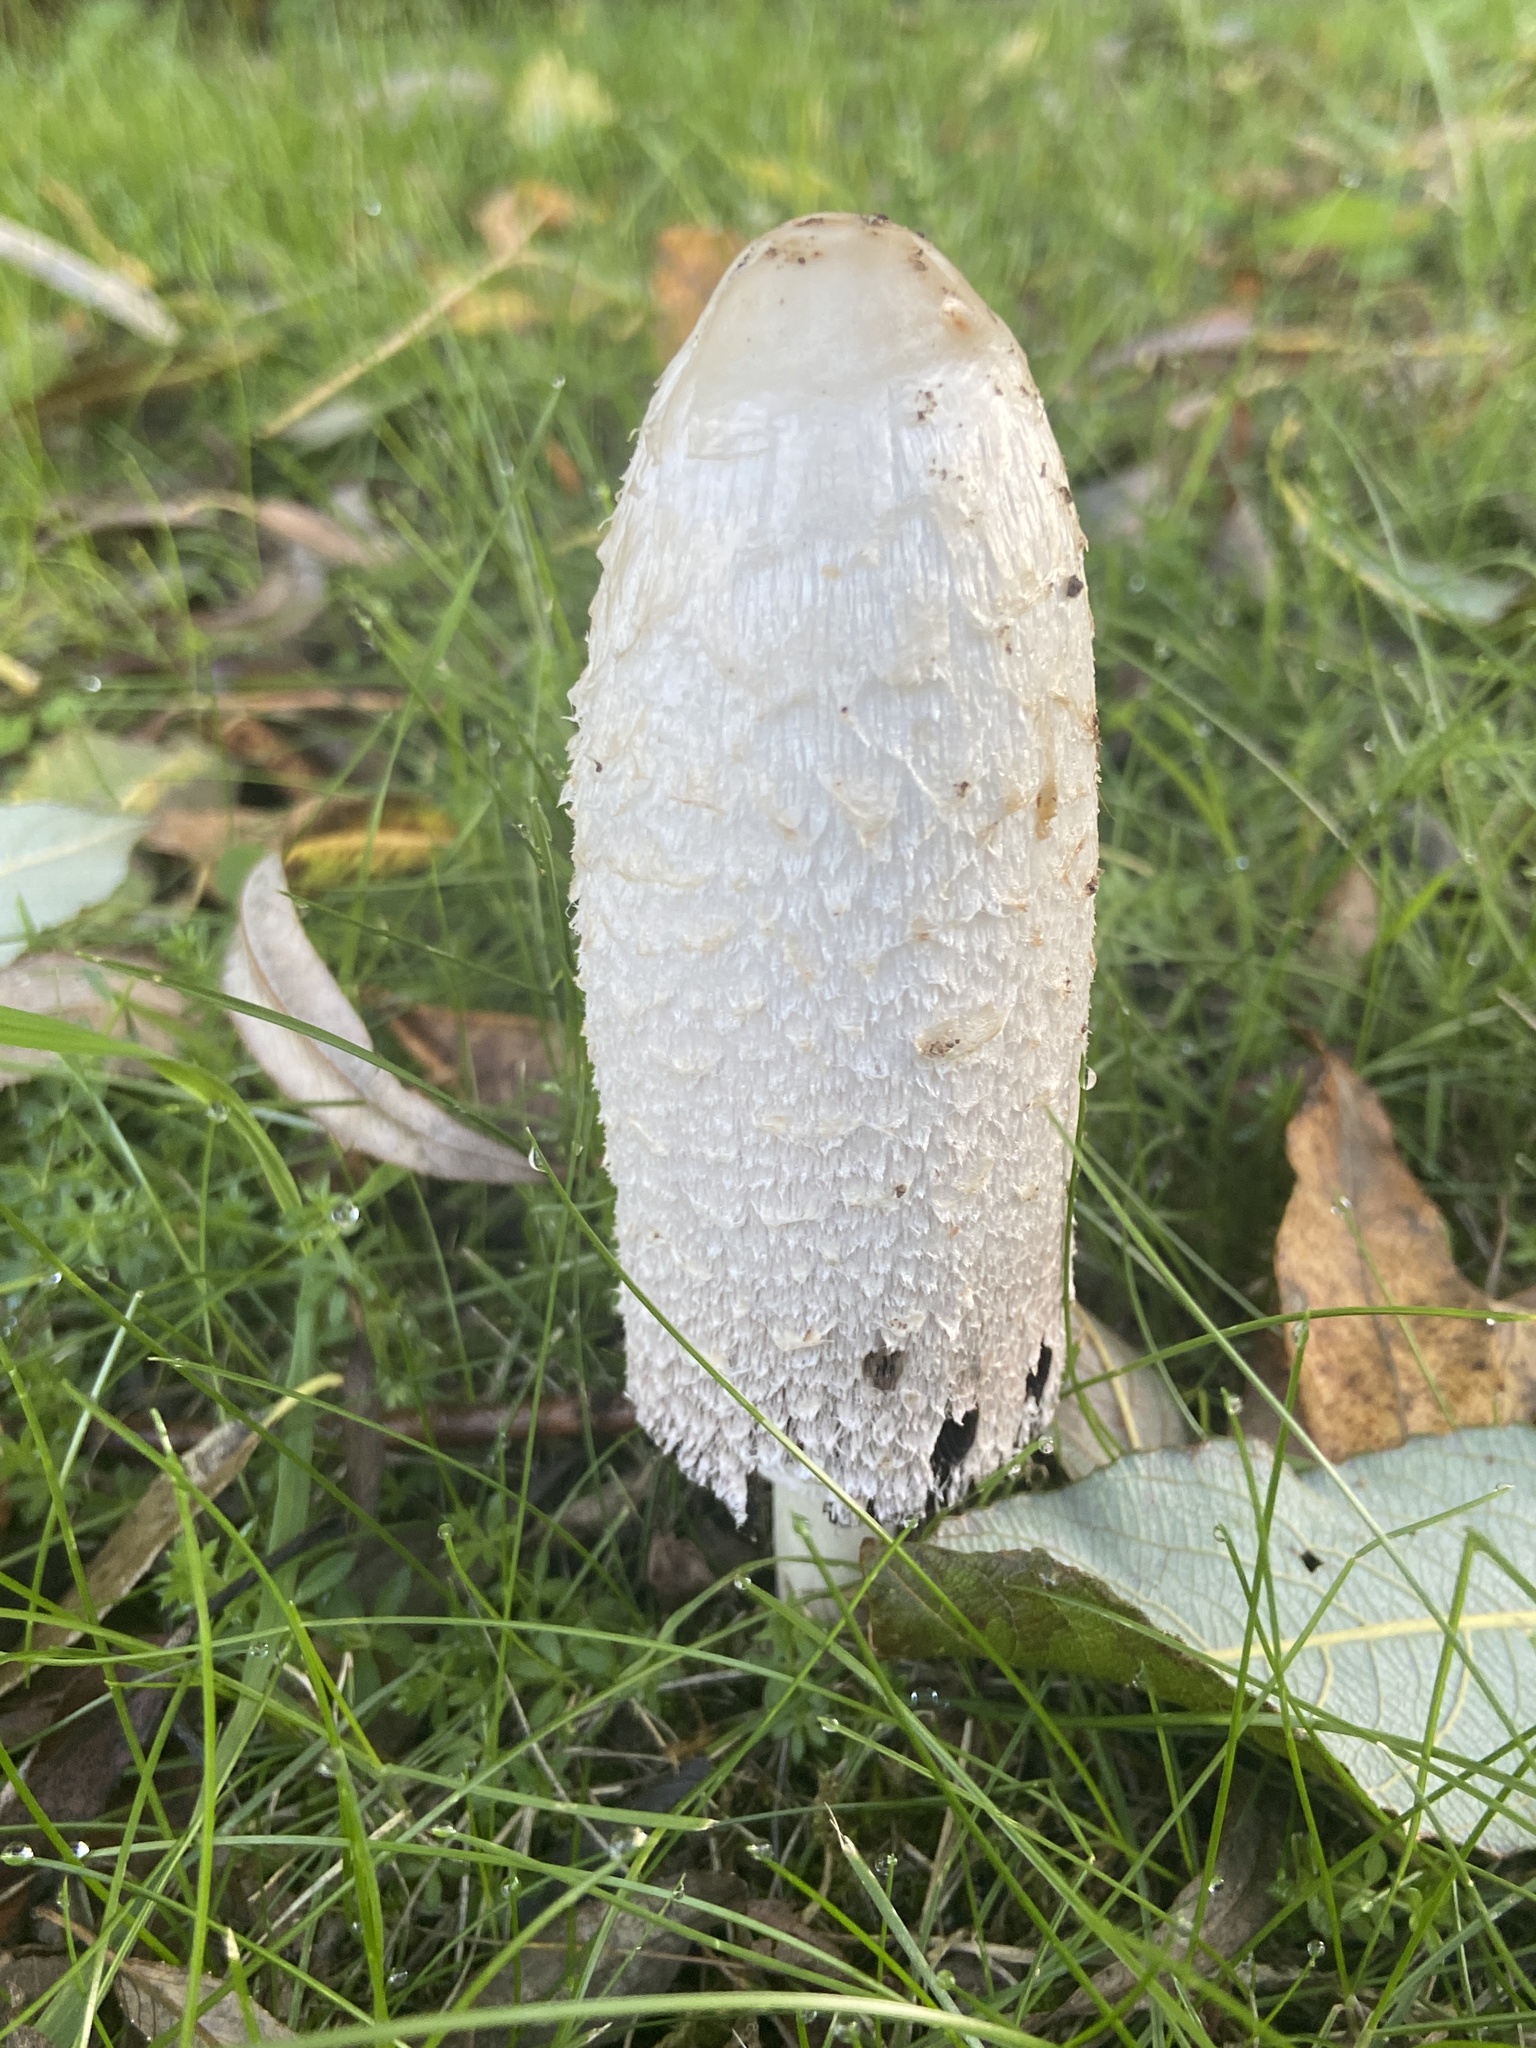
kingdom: Fungi
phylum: Basidiomycota
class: Agaricomycetes
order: Agaricales
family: Agaricaceae
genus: Coprinus
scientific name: Coprinus comatus
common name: Lawyer's wig
